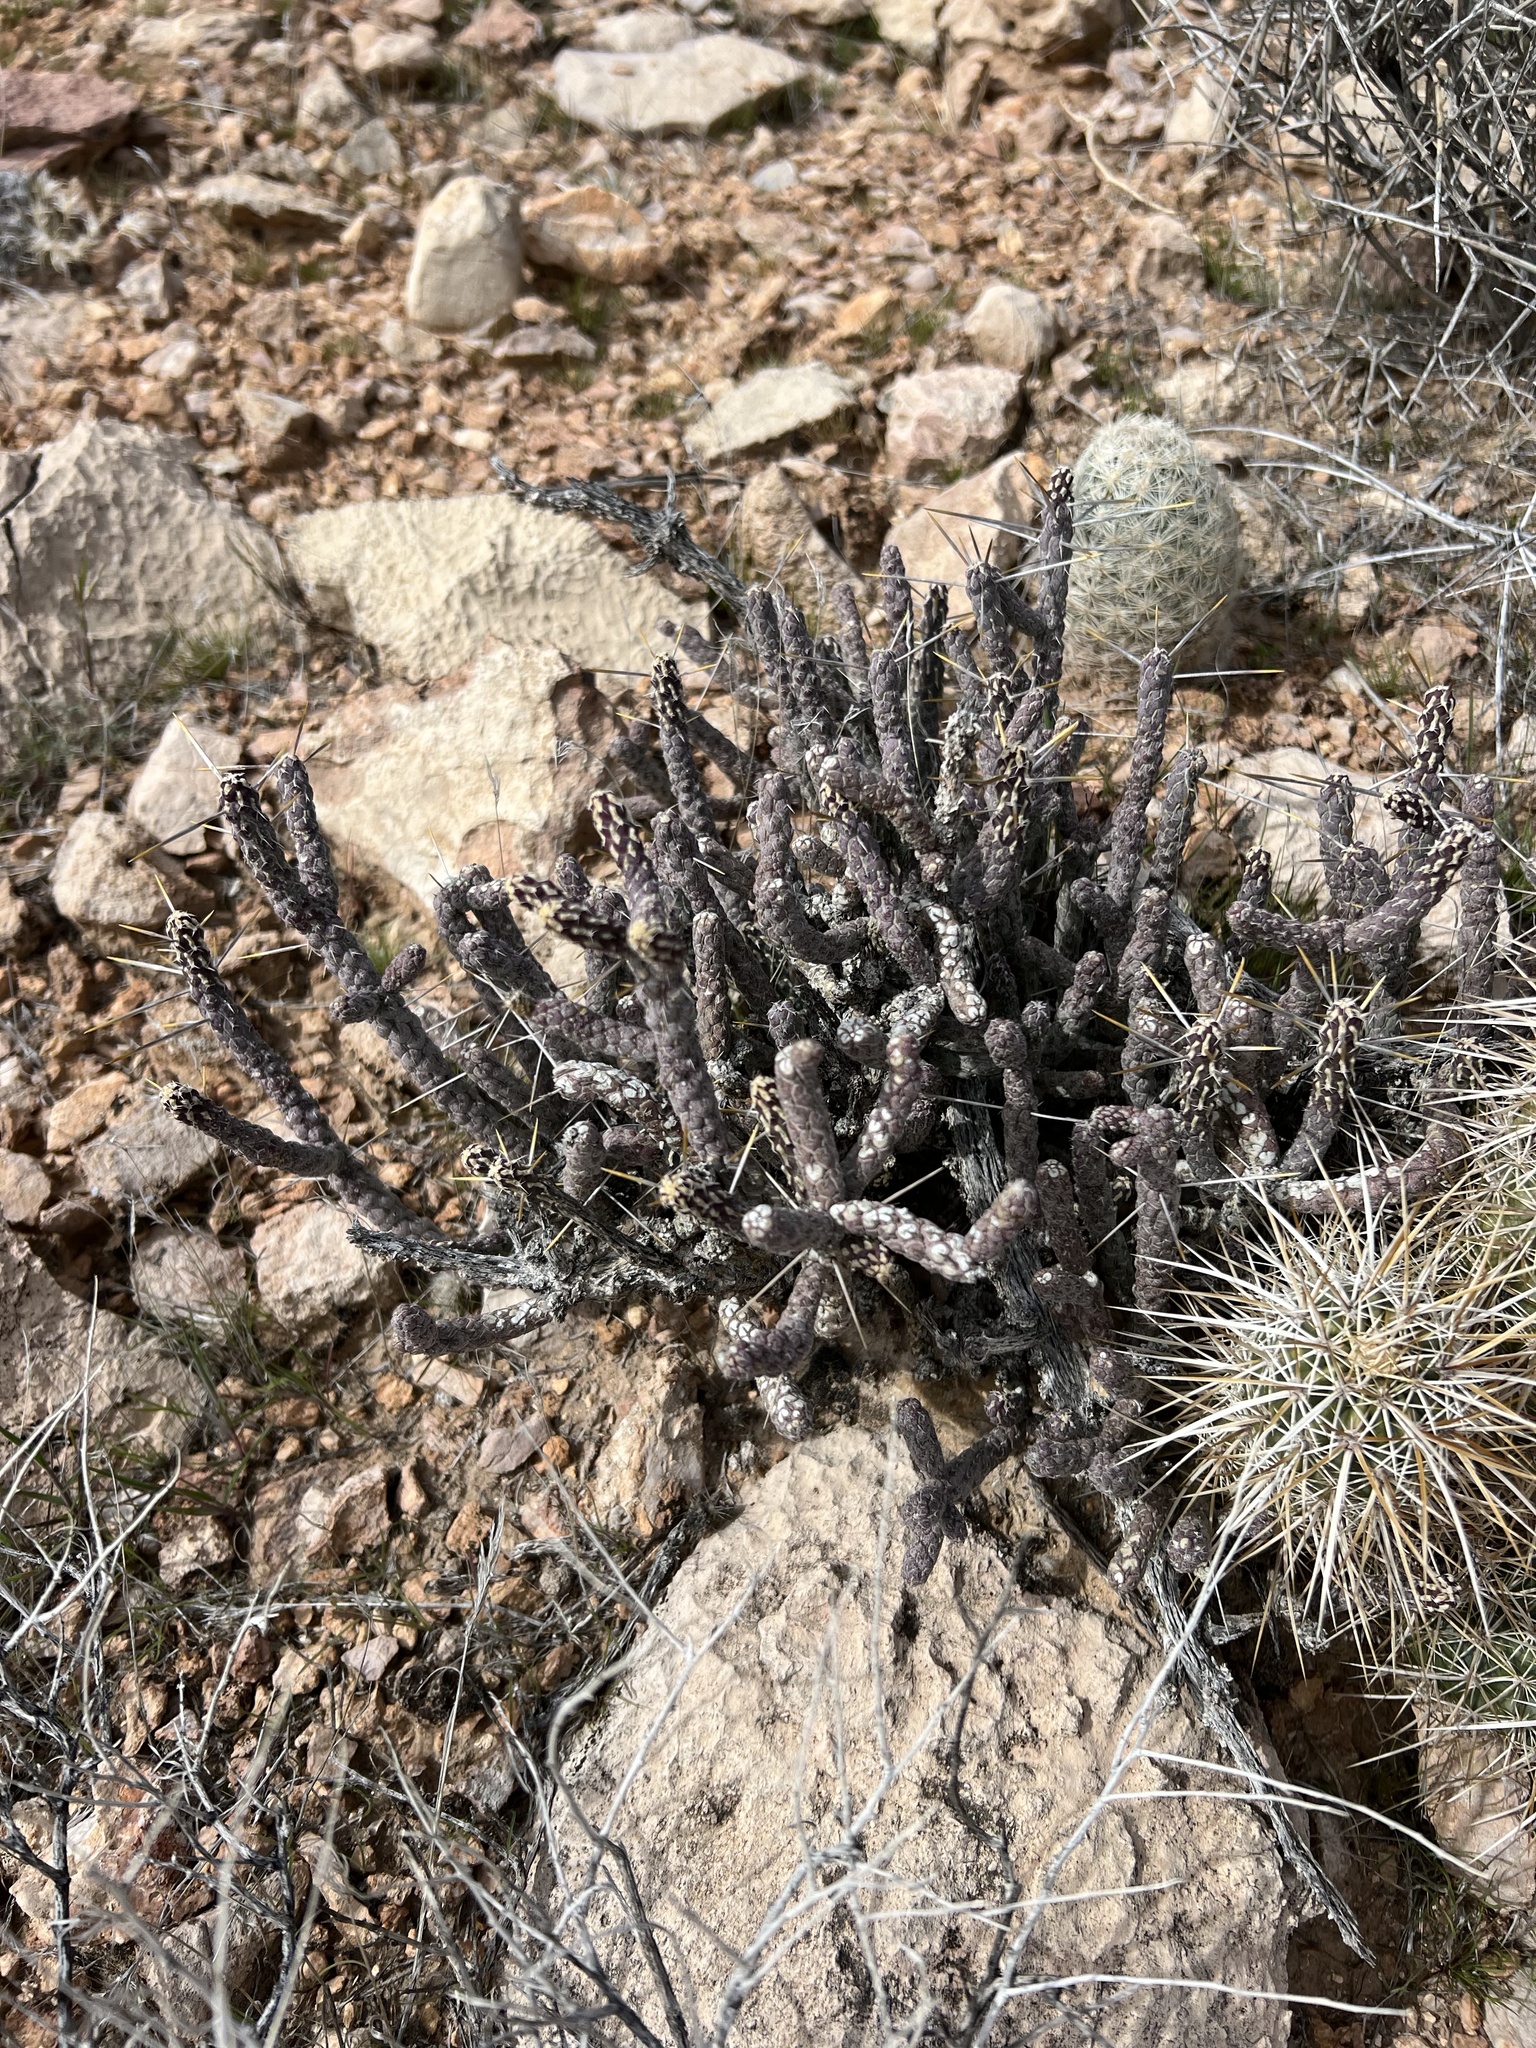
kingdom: Plantae
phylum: Tracheophyta
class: Magnoliopsida
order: Caryophyllales
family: Cactaceae
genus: Cylindropuntia
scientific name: Cylindropuntia ramosissima
